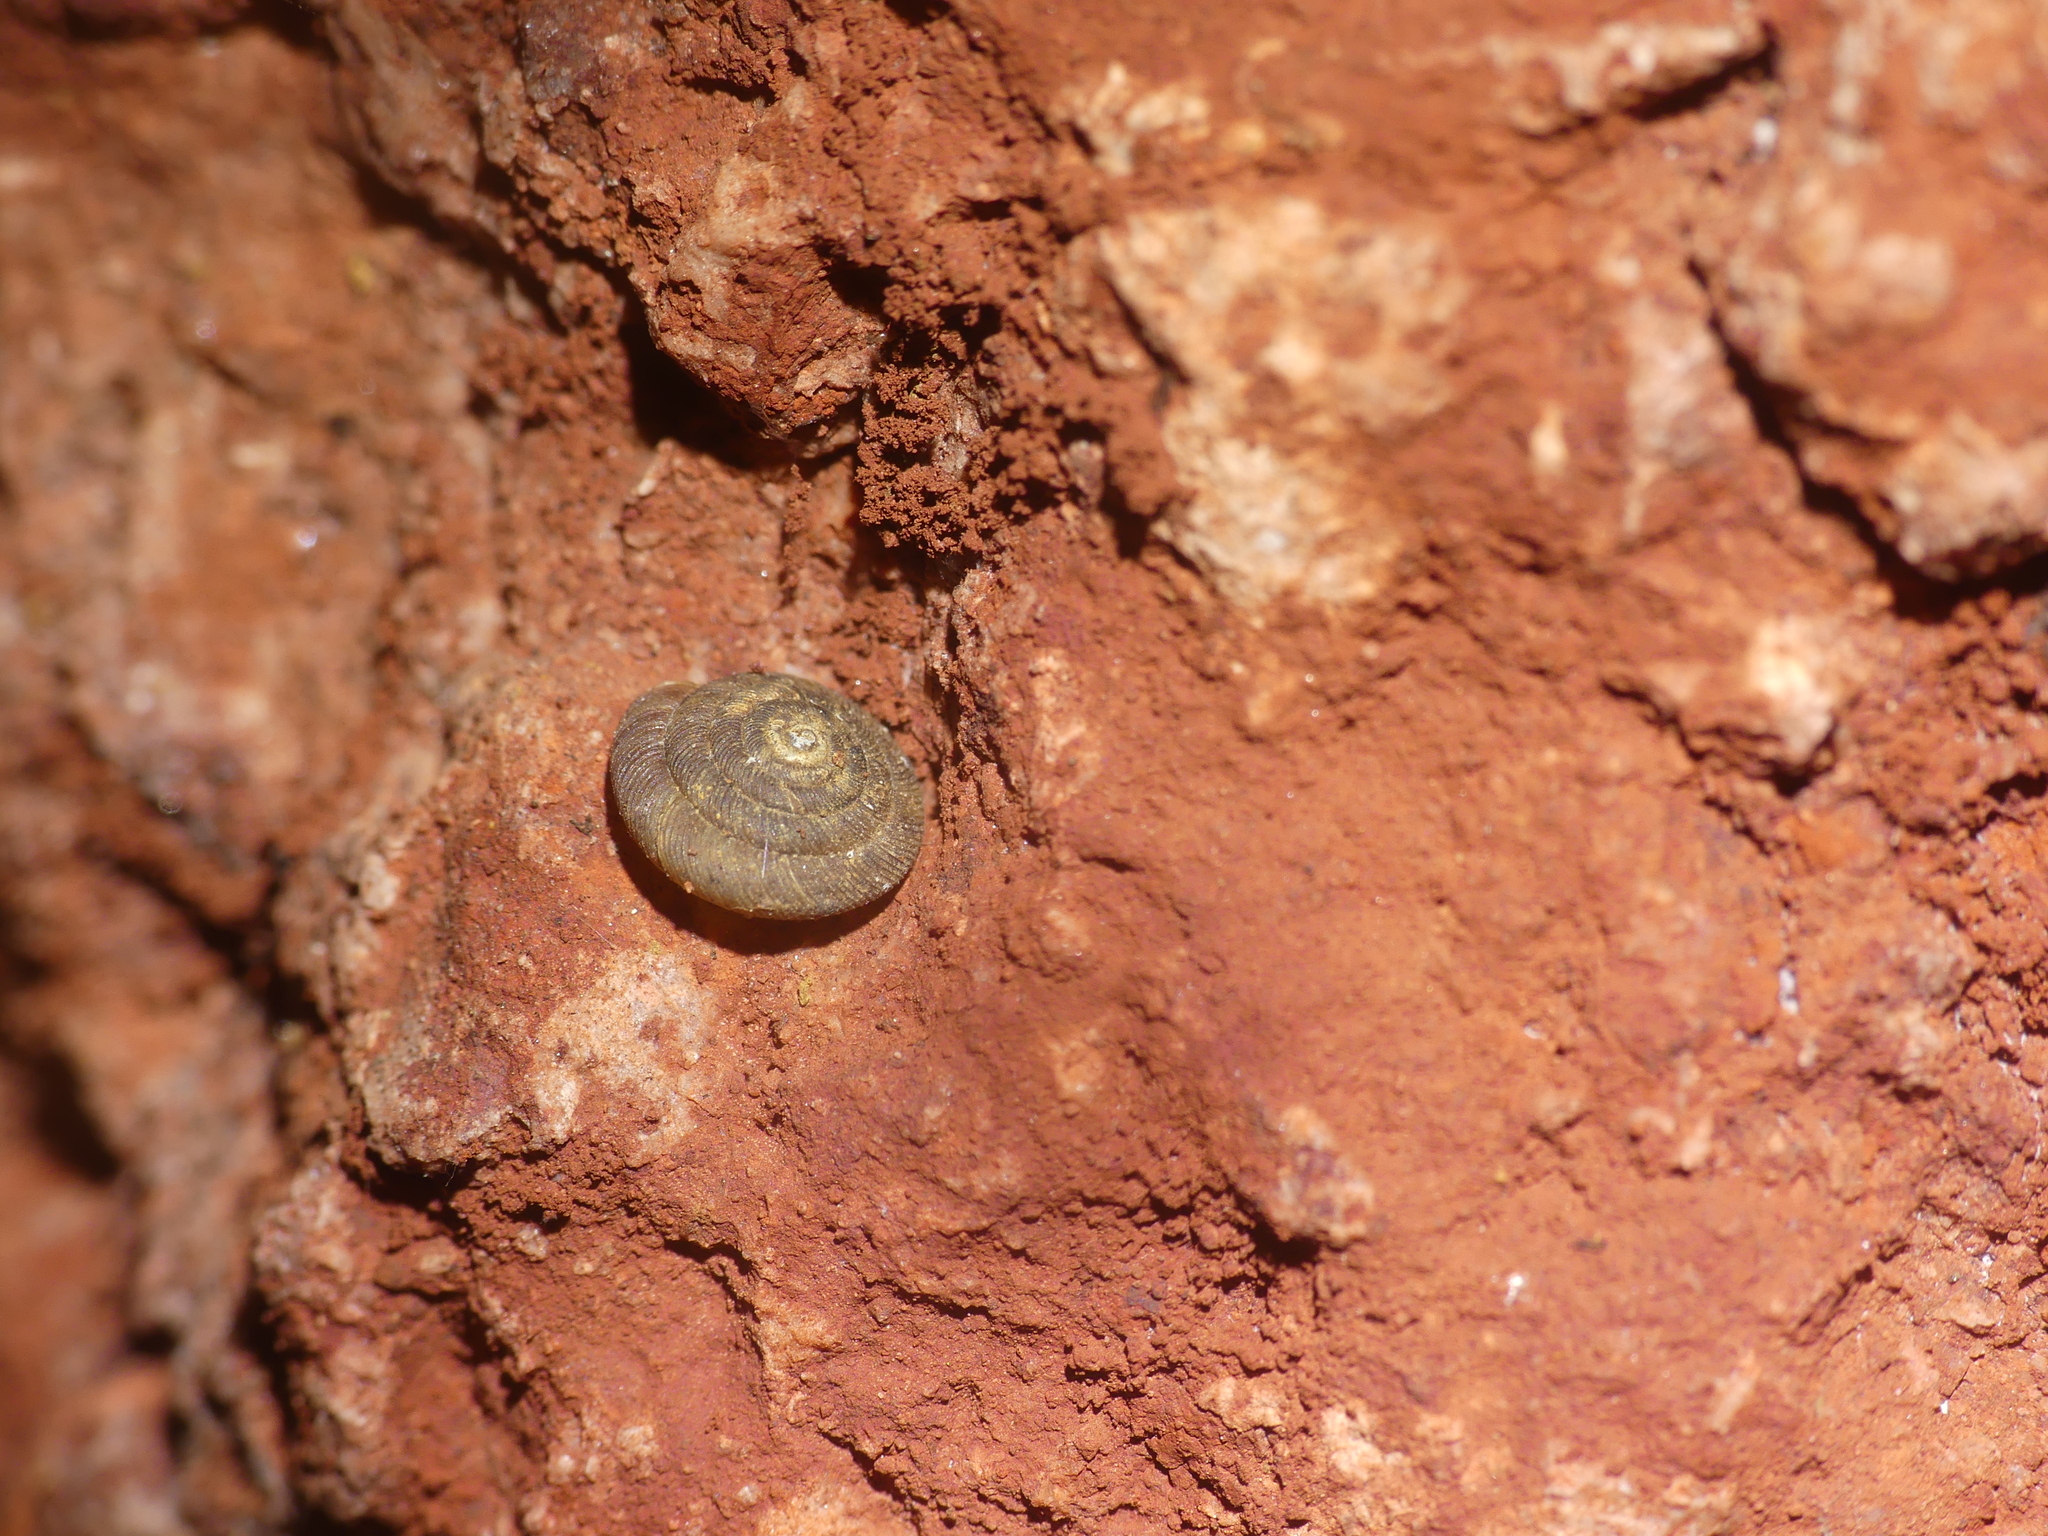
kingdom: Animalia
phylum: Mollusca
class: Gastropoda
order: Stylommatophora
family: Discidae
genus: Discus
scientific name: Discus rotundatus
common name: Rounded snail
